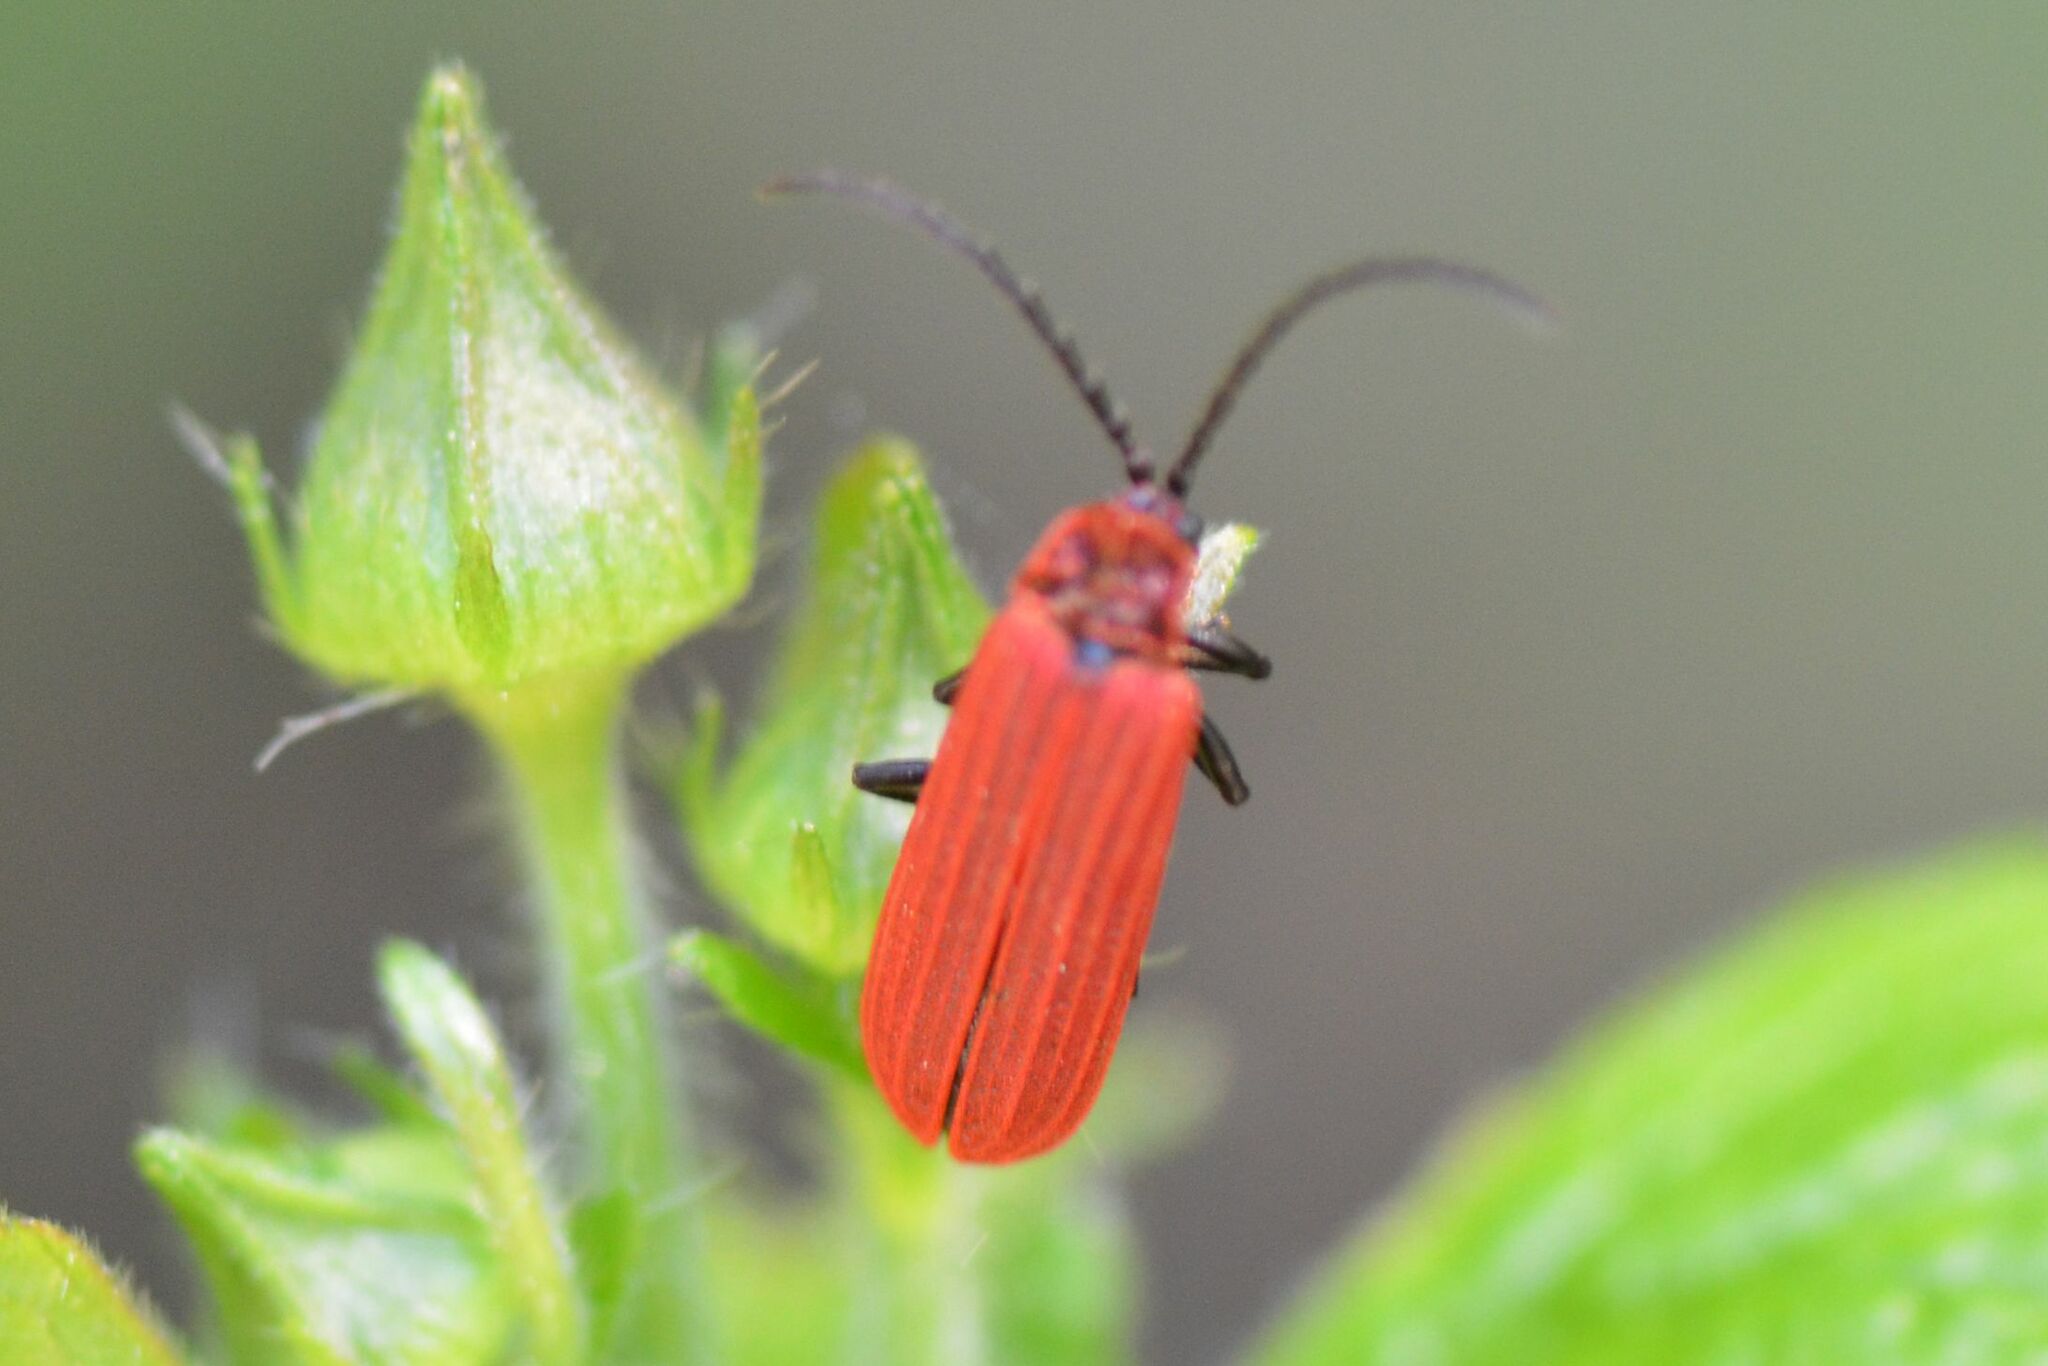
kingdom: Animalia
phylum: Arthropoda
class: Insecta
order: Coleoptera
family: Lycidae
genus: Lopheros
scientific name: Lopheros rubens
